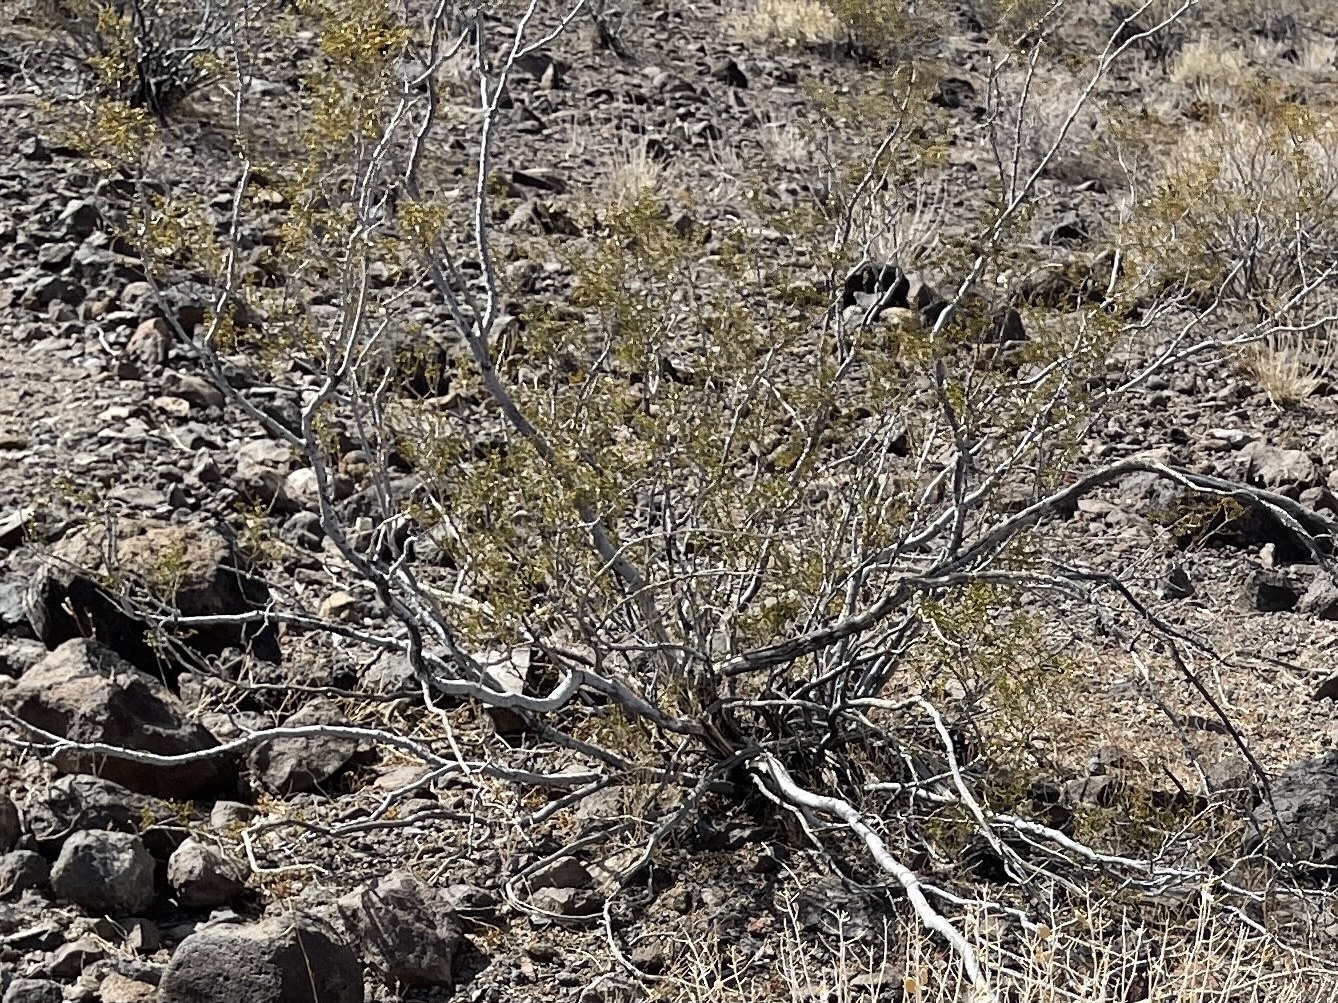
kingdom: Plantae
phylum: Tracheophyta
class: Magnoliopsida
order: Zygophyllales
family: Zygophyllaceae
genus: Larrea
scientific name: Larrea tridentata
